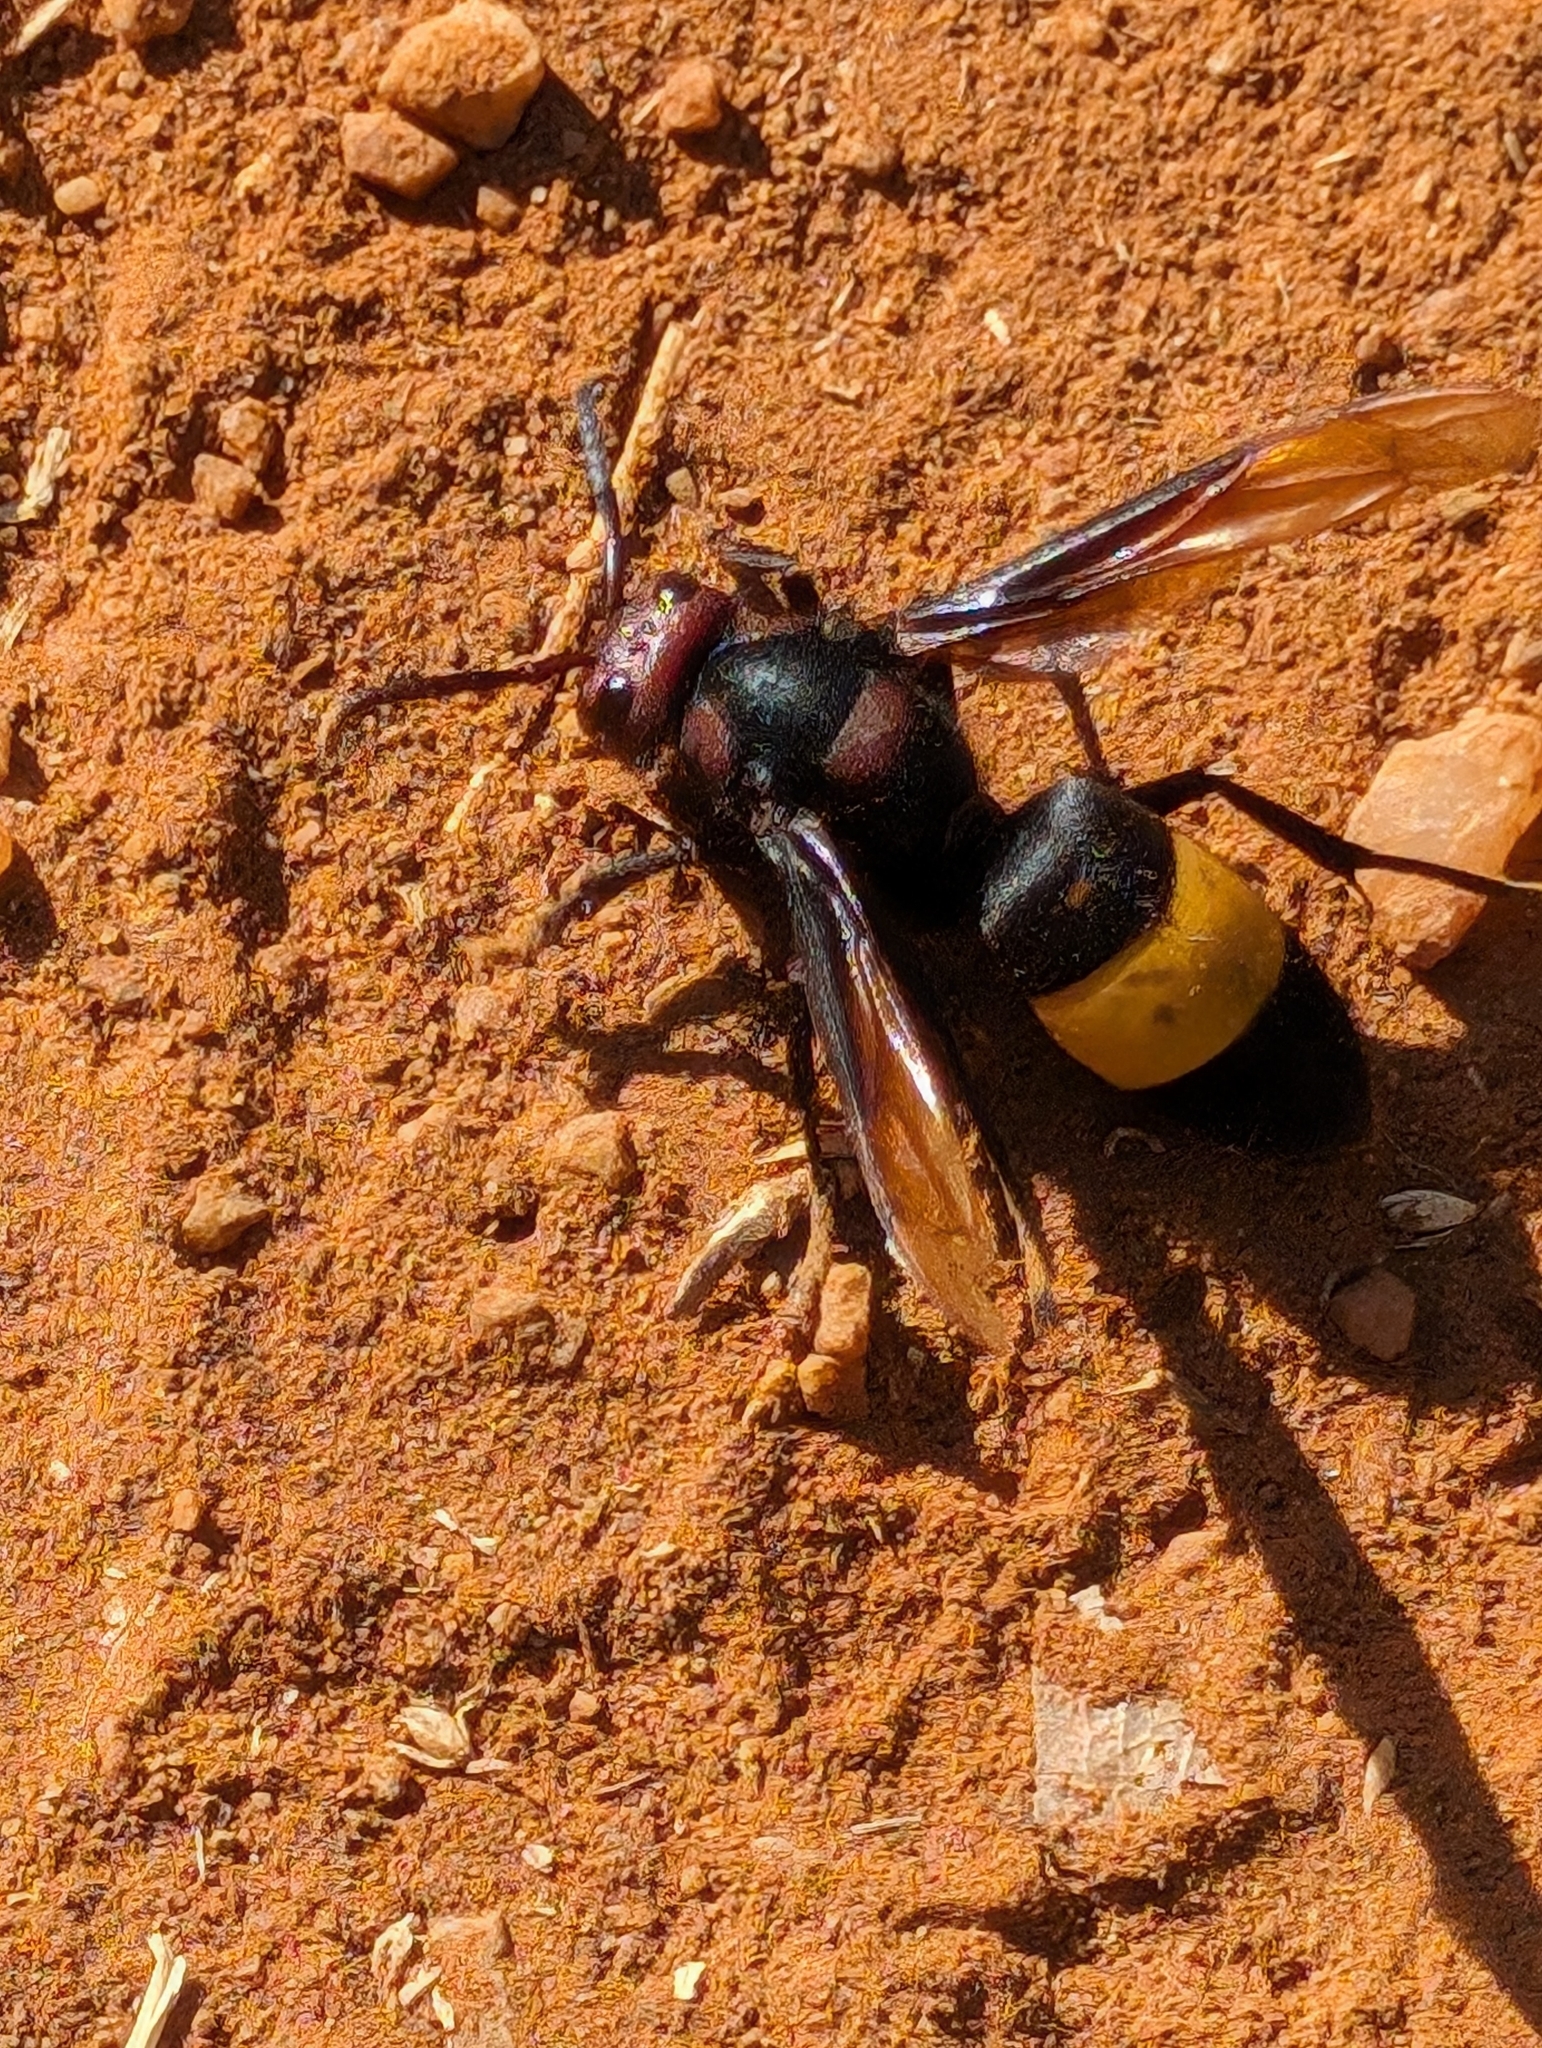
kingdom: Animalia
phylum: Arthropoda
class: Insecta
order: Hymenoptera
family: Vespidae
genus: Vespa
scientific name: Vespa tropica
